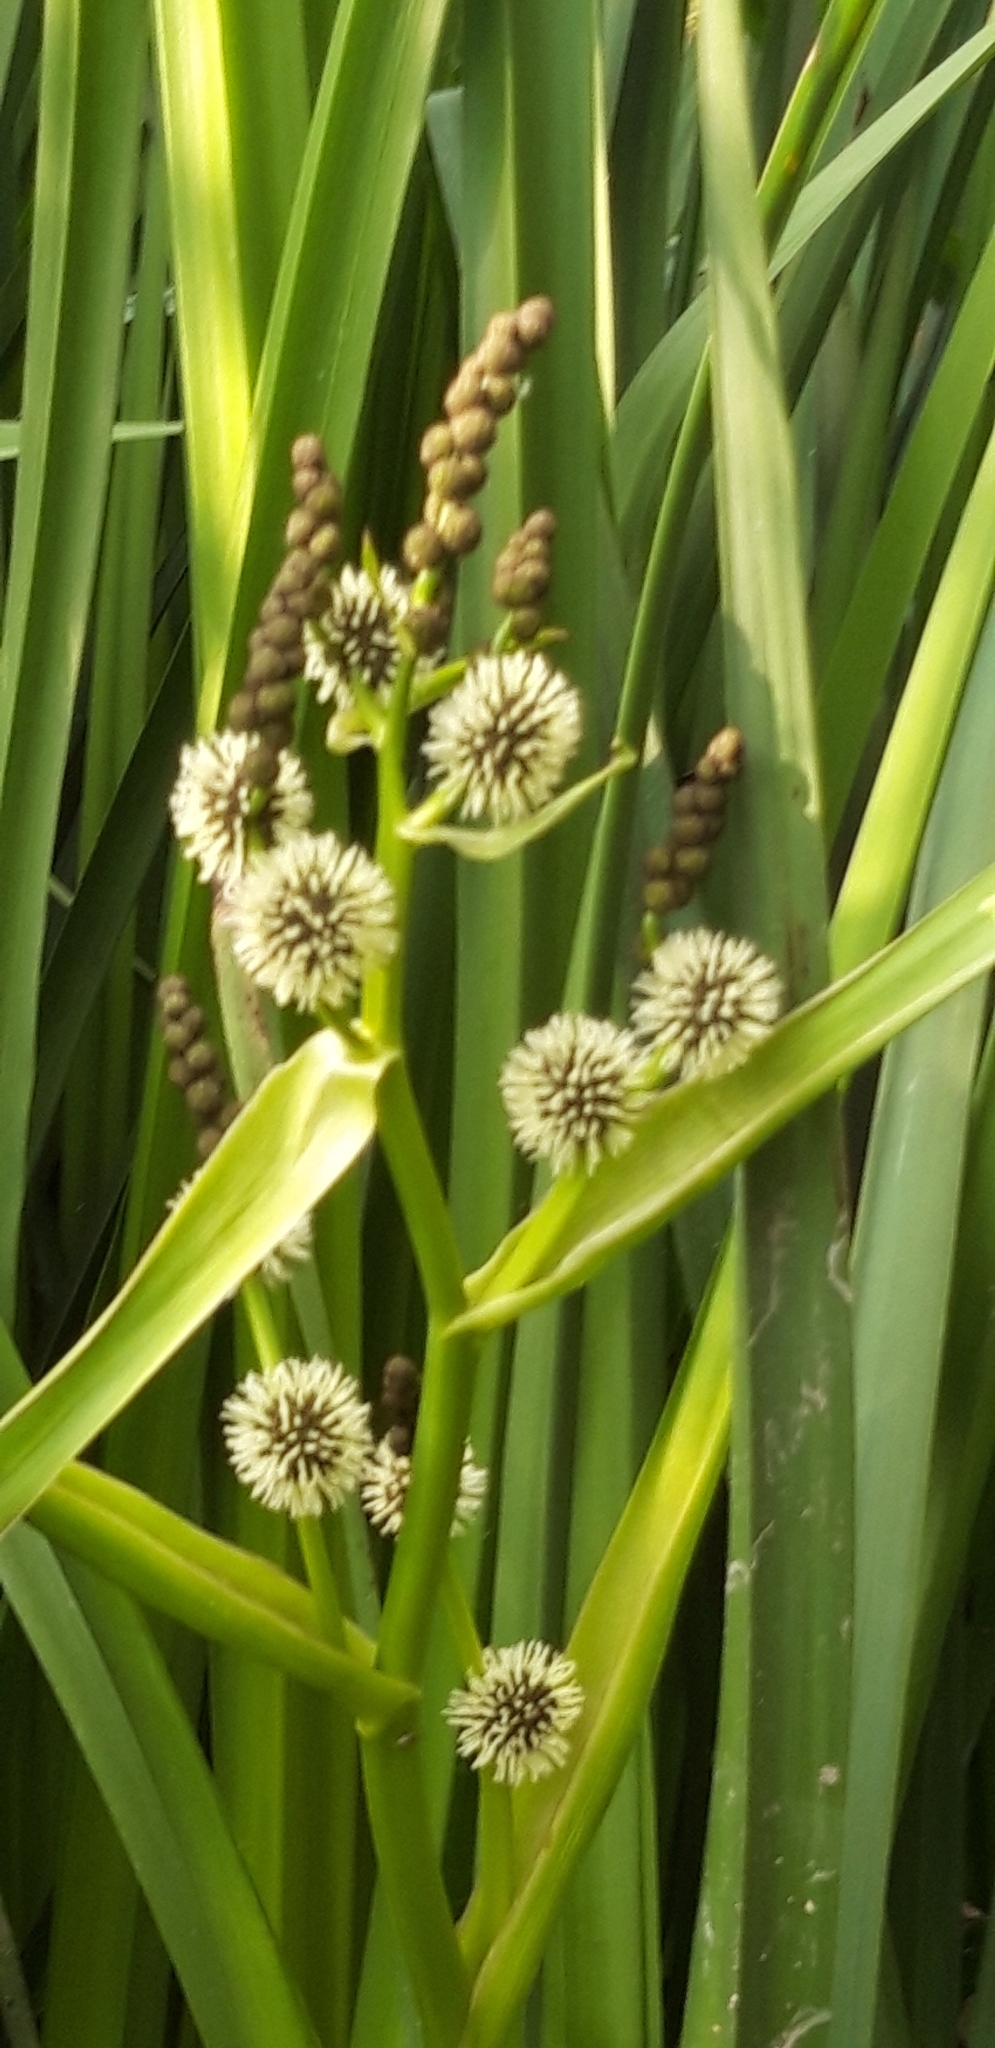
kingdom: Plantae
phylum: Tracheophyta
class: Liliopsida
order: Poales
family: Typhaceae
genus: Sparganium
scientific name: Sparganium erectum
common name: Branched bur-reed
